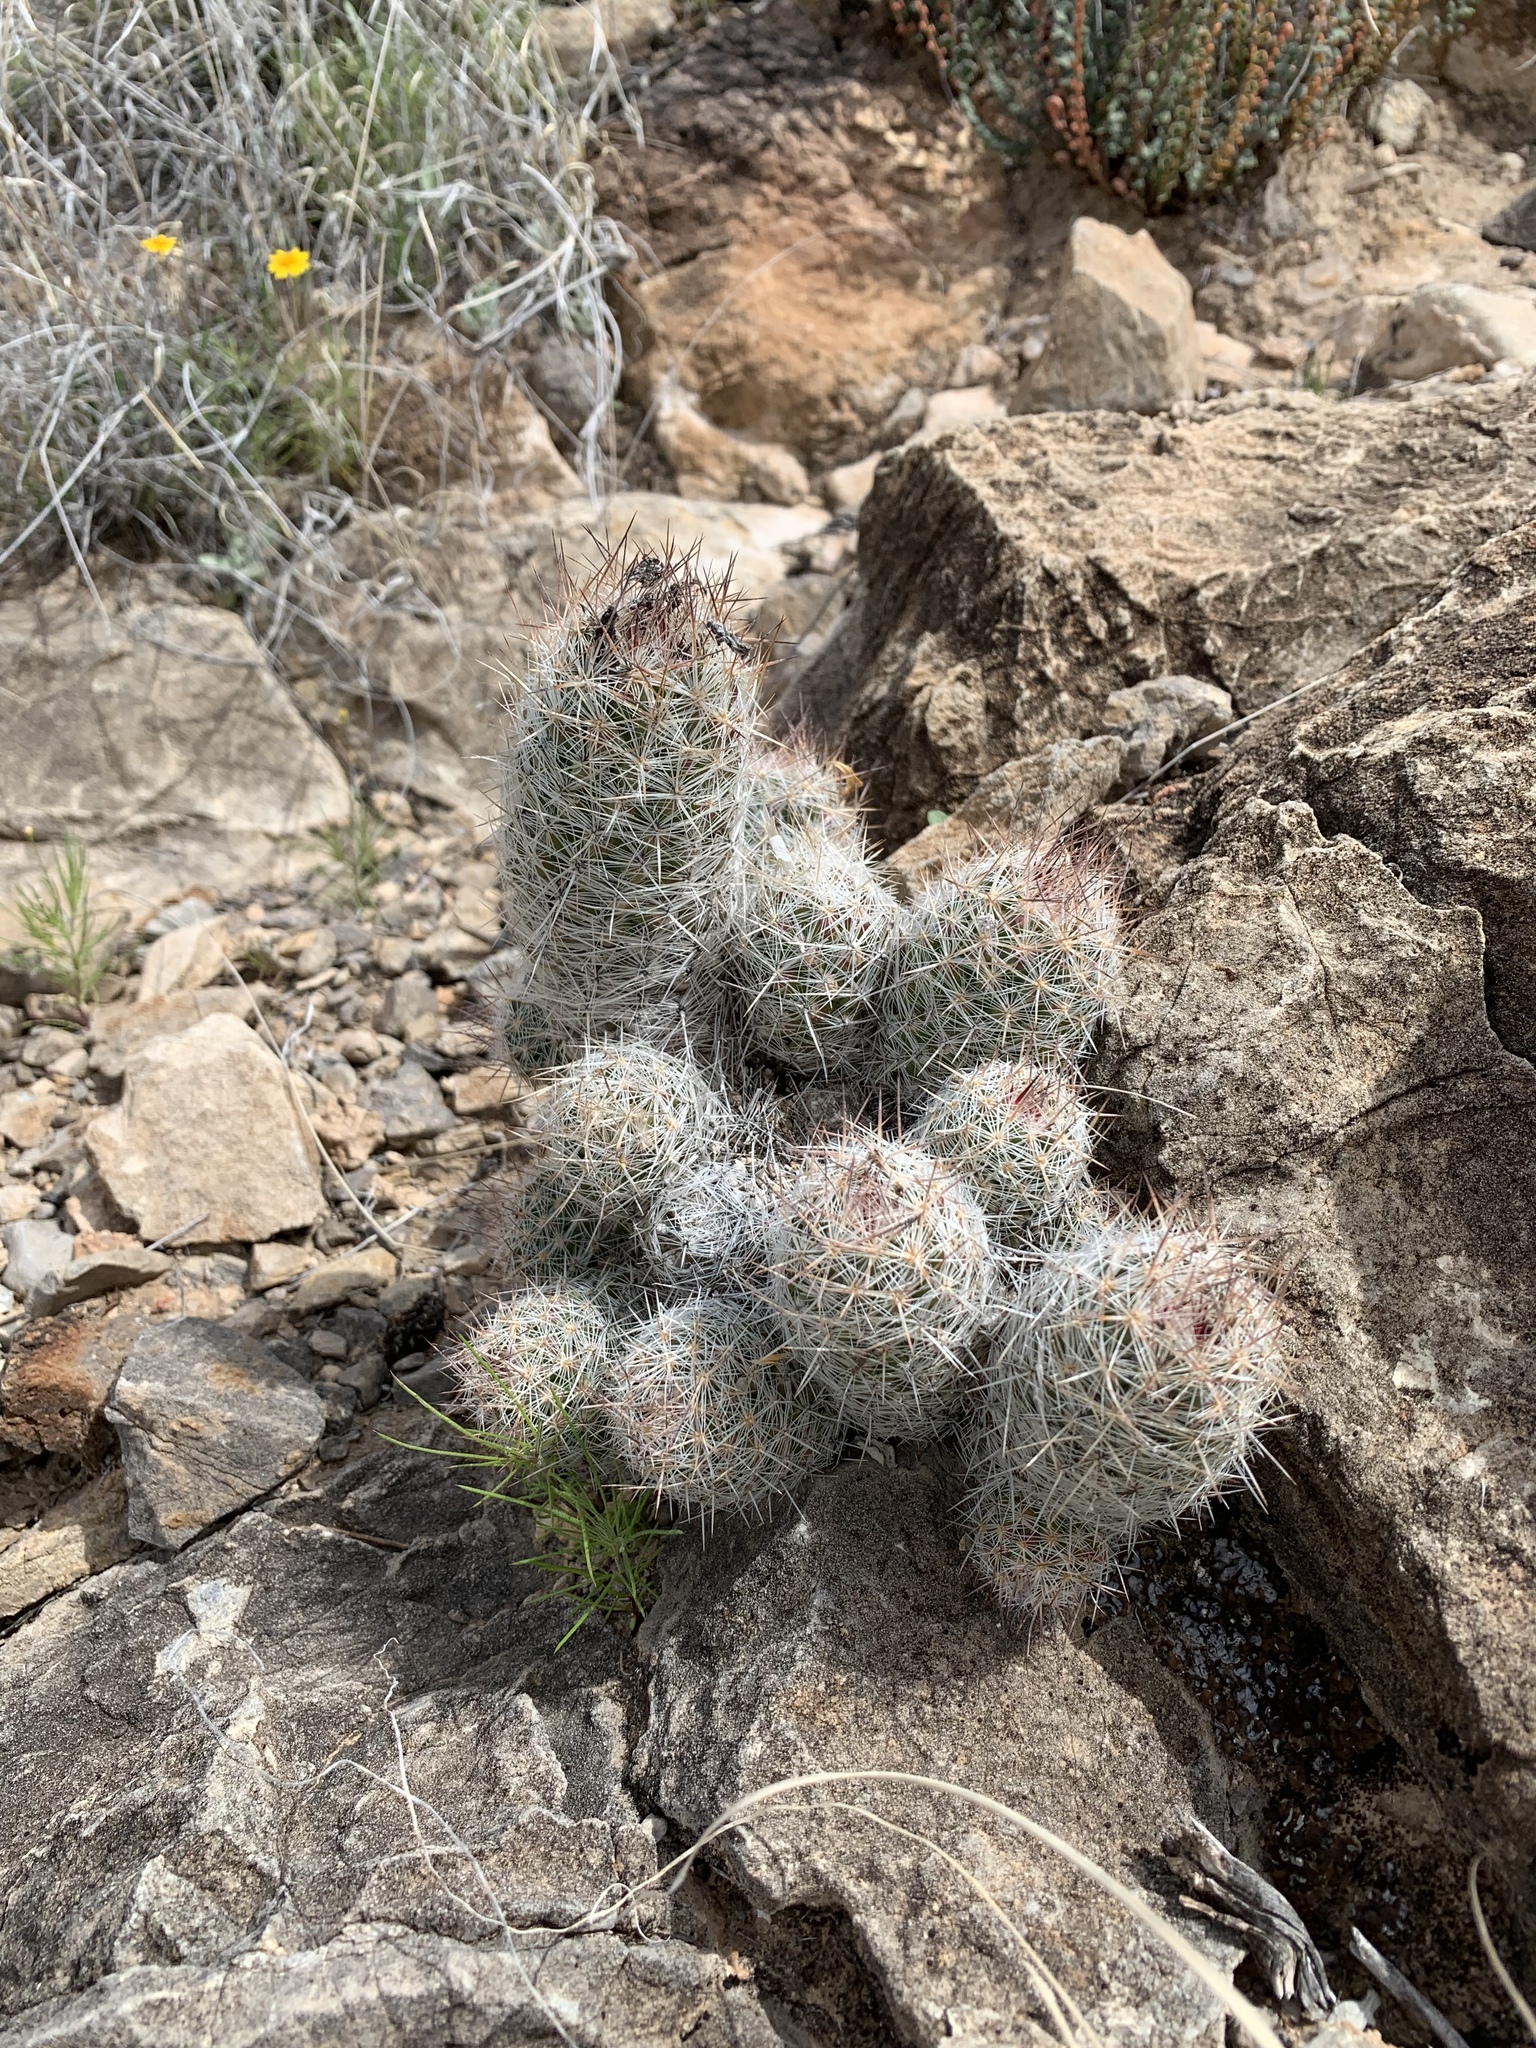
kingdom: Plantae
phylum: Tracheophyta
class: Magnoliopsida
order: Caryophyllales
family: Cactaceae
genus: Pelecyphora
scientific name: Pelecyphora tuberculosa
